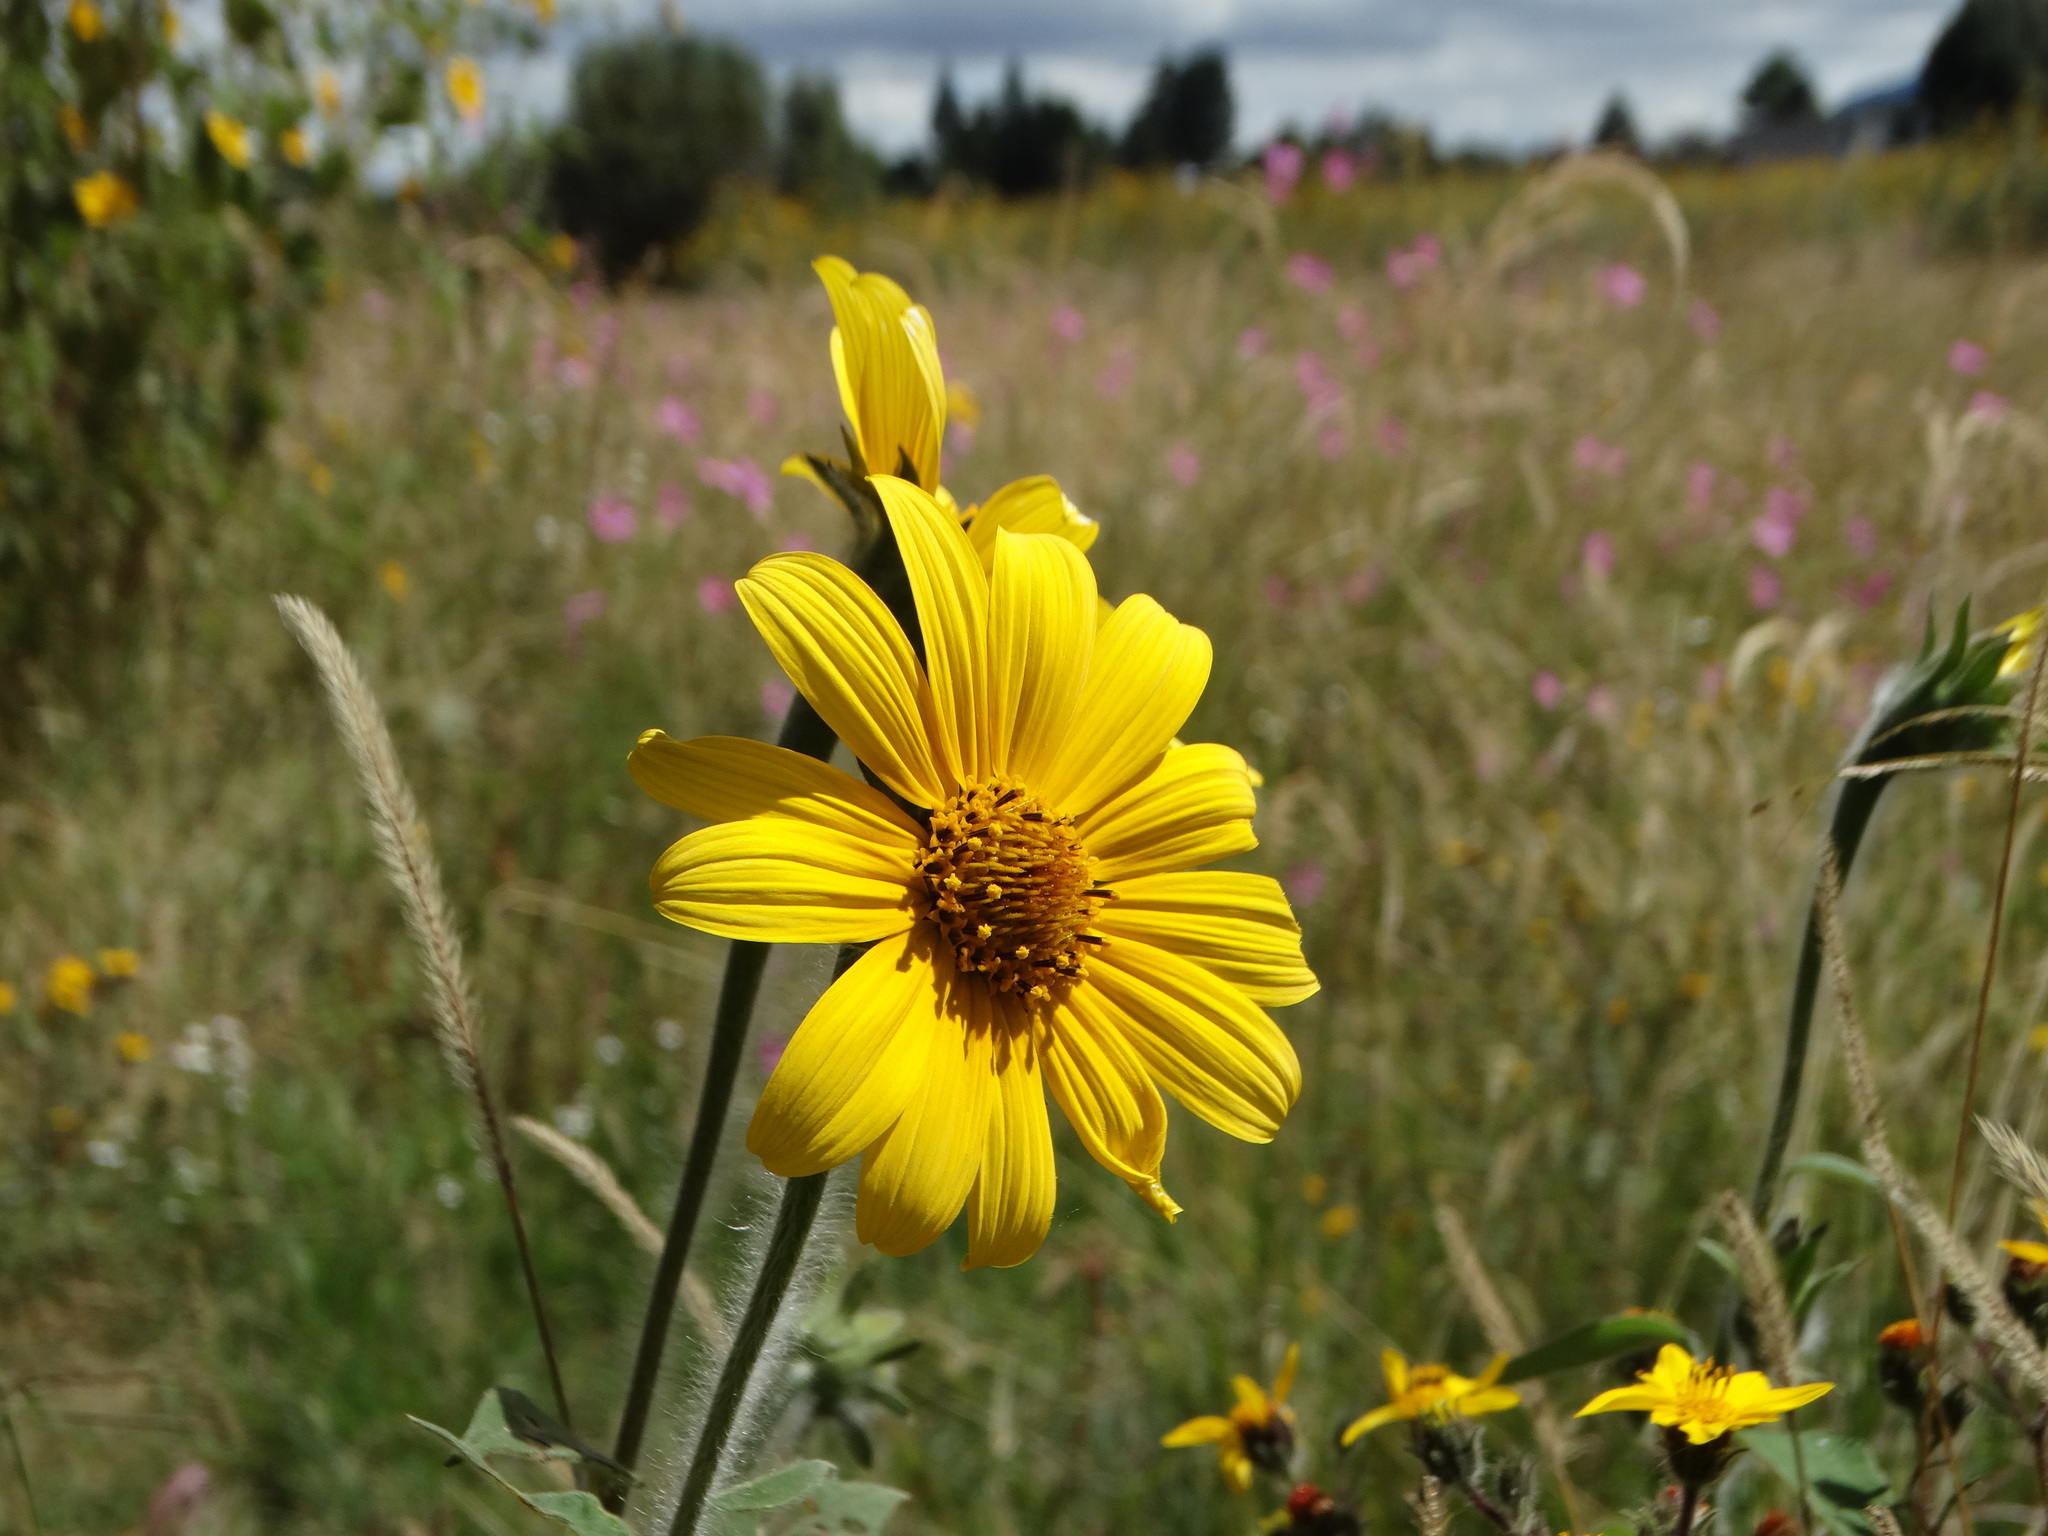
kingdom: Plantae
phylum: Tracheophyta
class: Magnoliopsida
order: Asterales
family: Asteraceae
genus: Tithonia
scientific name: Tithonia tubaeformis
